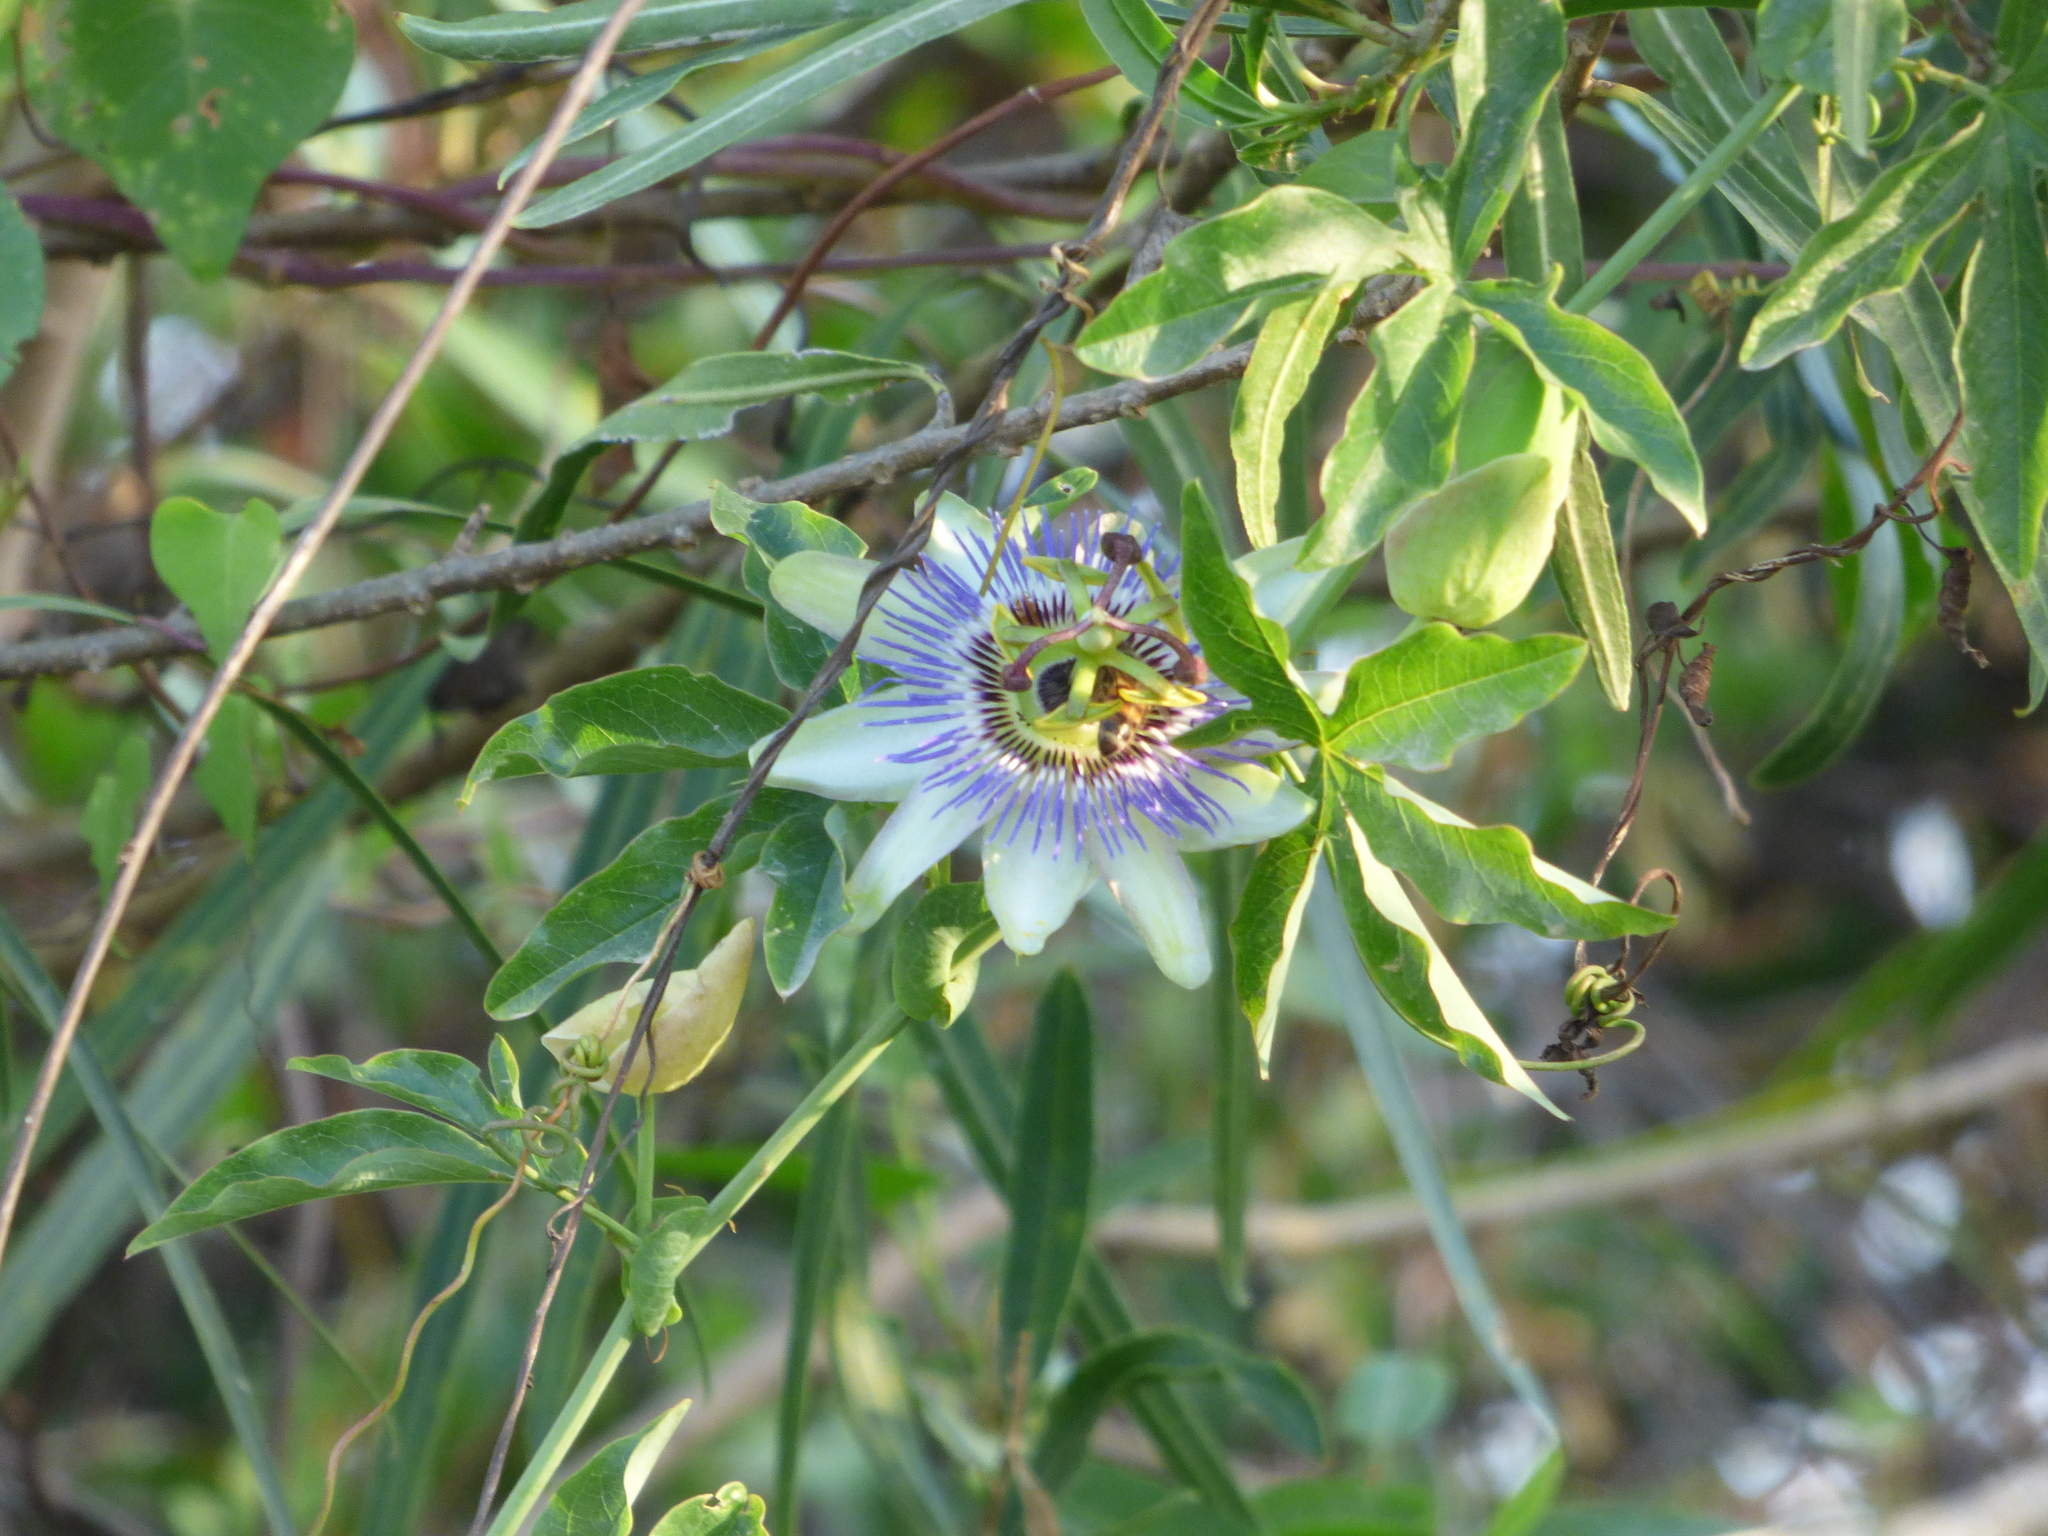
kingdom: Plantae
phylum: Tracheophyta
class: Magnoliopsida
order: Malpighiales
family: Passifloraceae
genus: Passiflora
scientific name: Passiflora caerulea
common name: Blue passionflower
